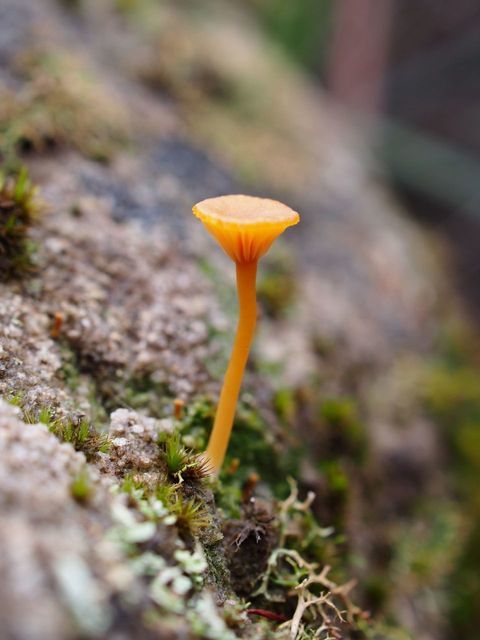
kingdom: Fungi
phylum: Basidiomycota
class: Agaricomycetes
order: Agaricales
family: Hygrophoraceae
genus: Lichenomphalia
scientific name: Lichenomphalia chromacea
